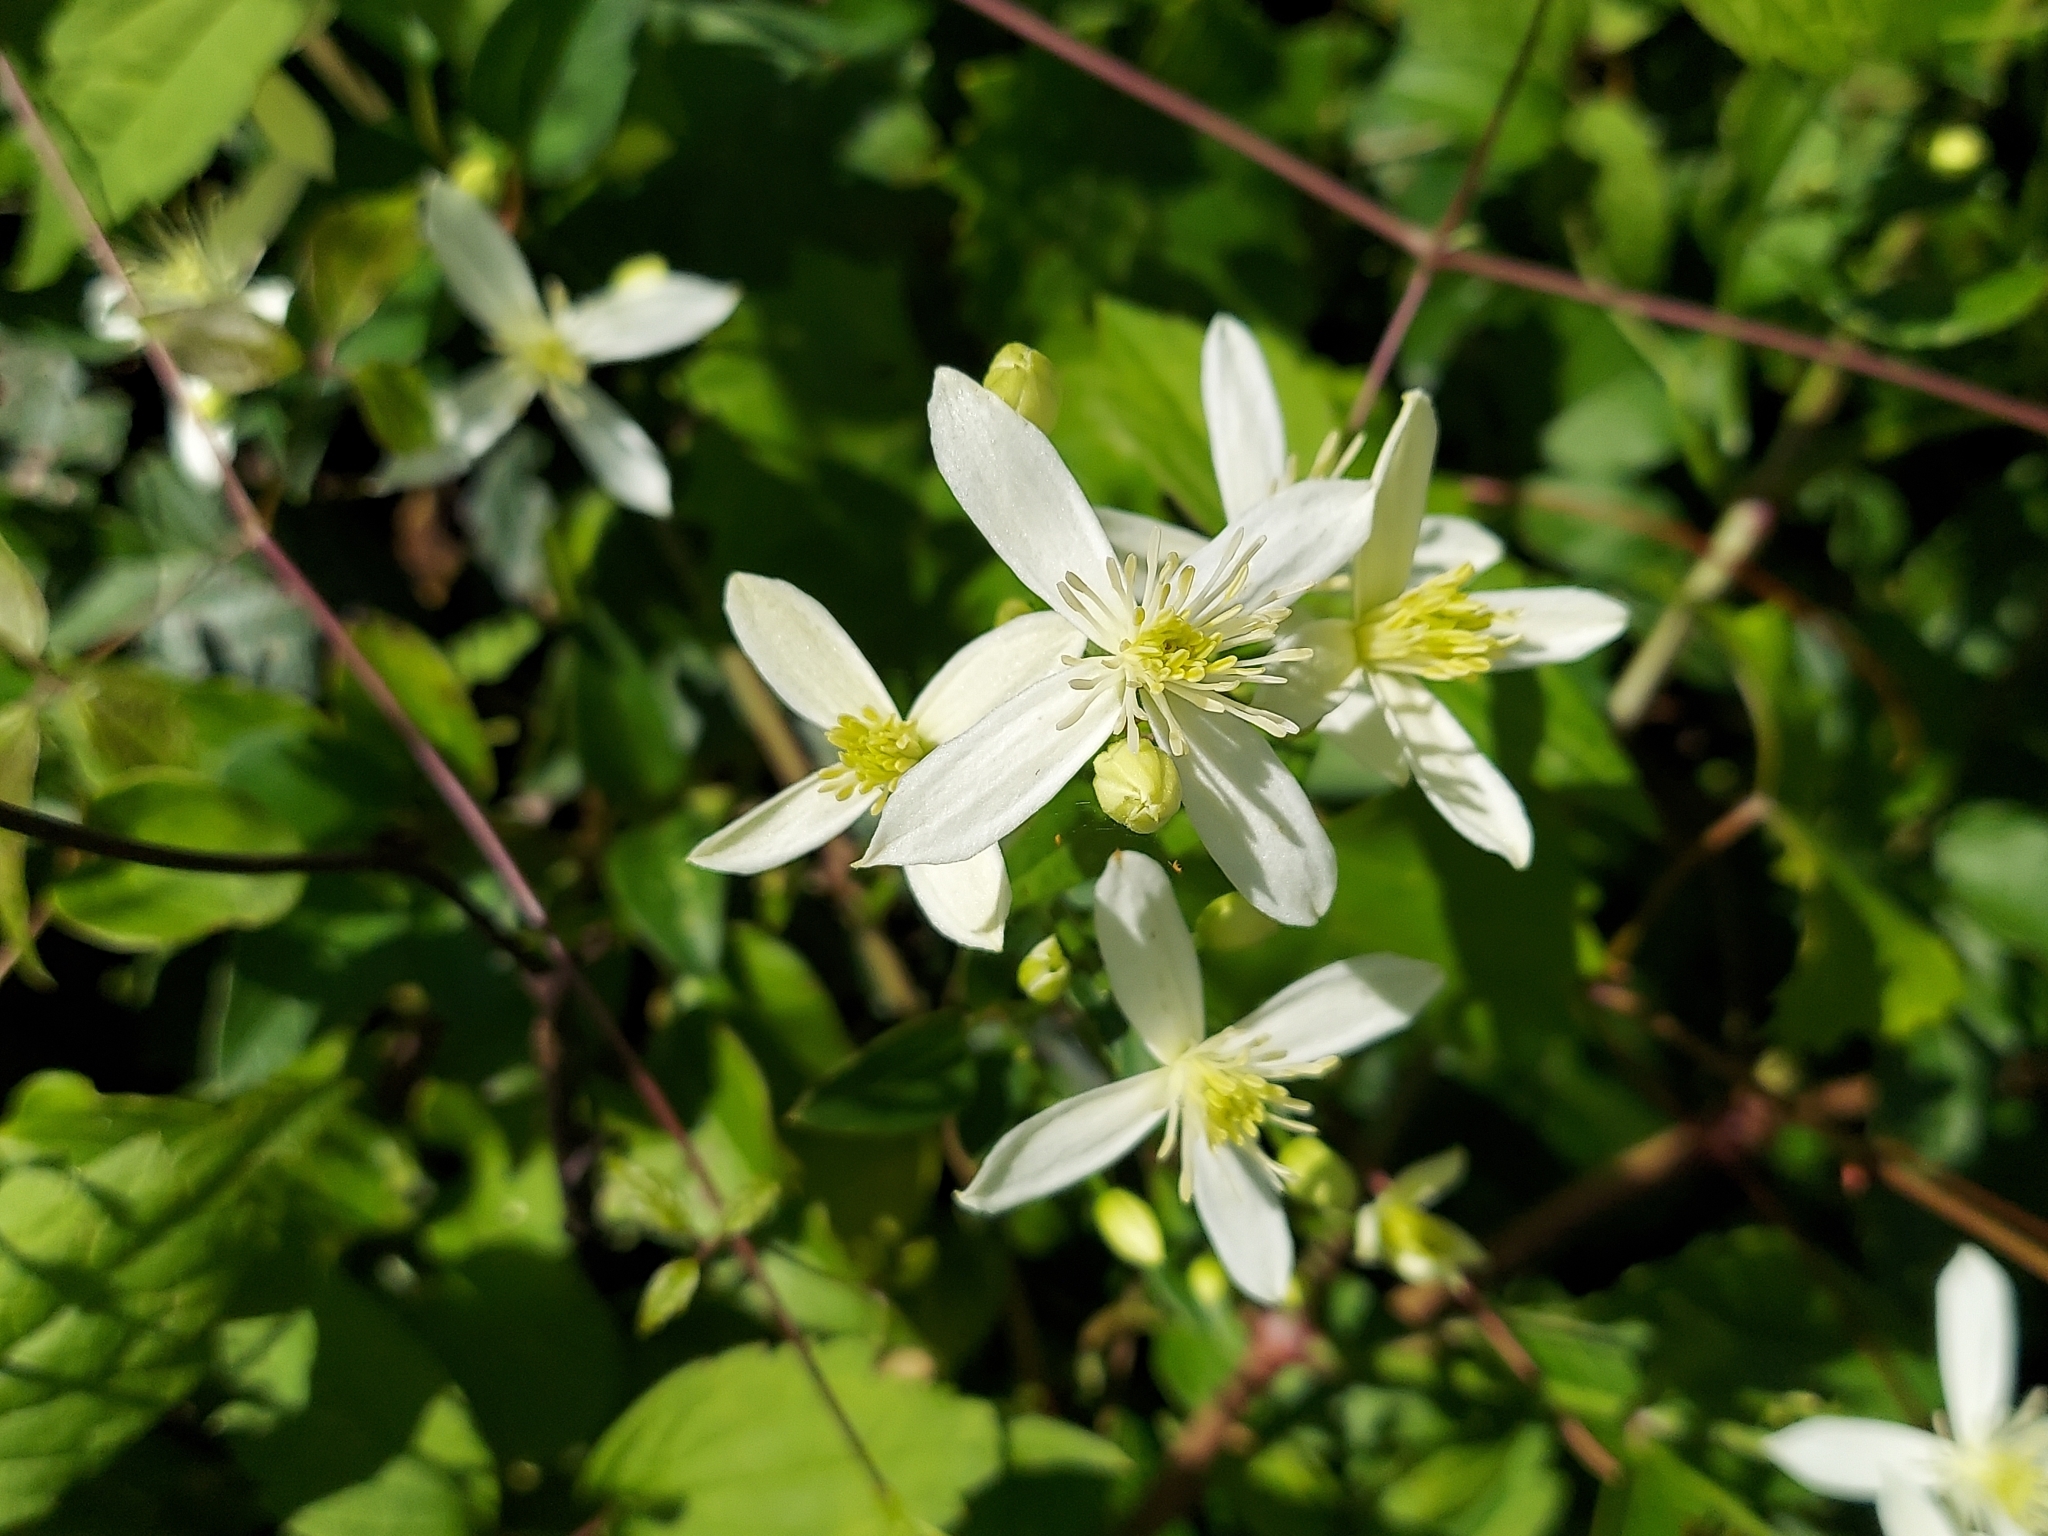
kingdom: Plantae
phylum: Tracheophyta
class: Magnoliopsida
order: Ranunculales
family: Ranunculaceae
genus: Clematis
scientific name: Clematis terniflora
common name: Sweet autumn clematis
